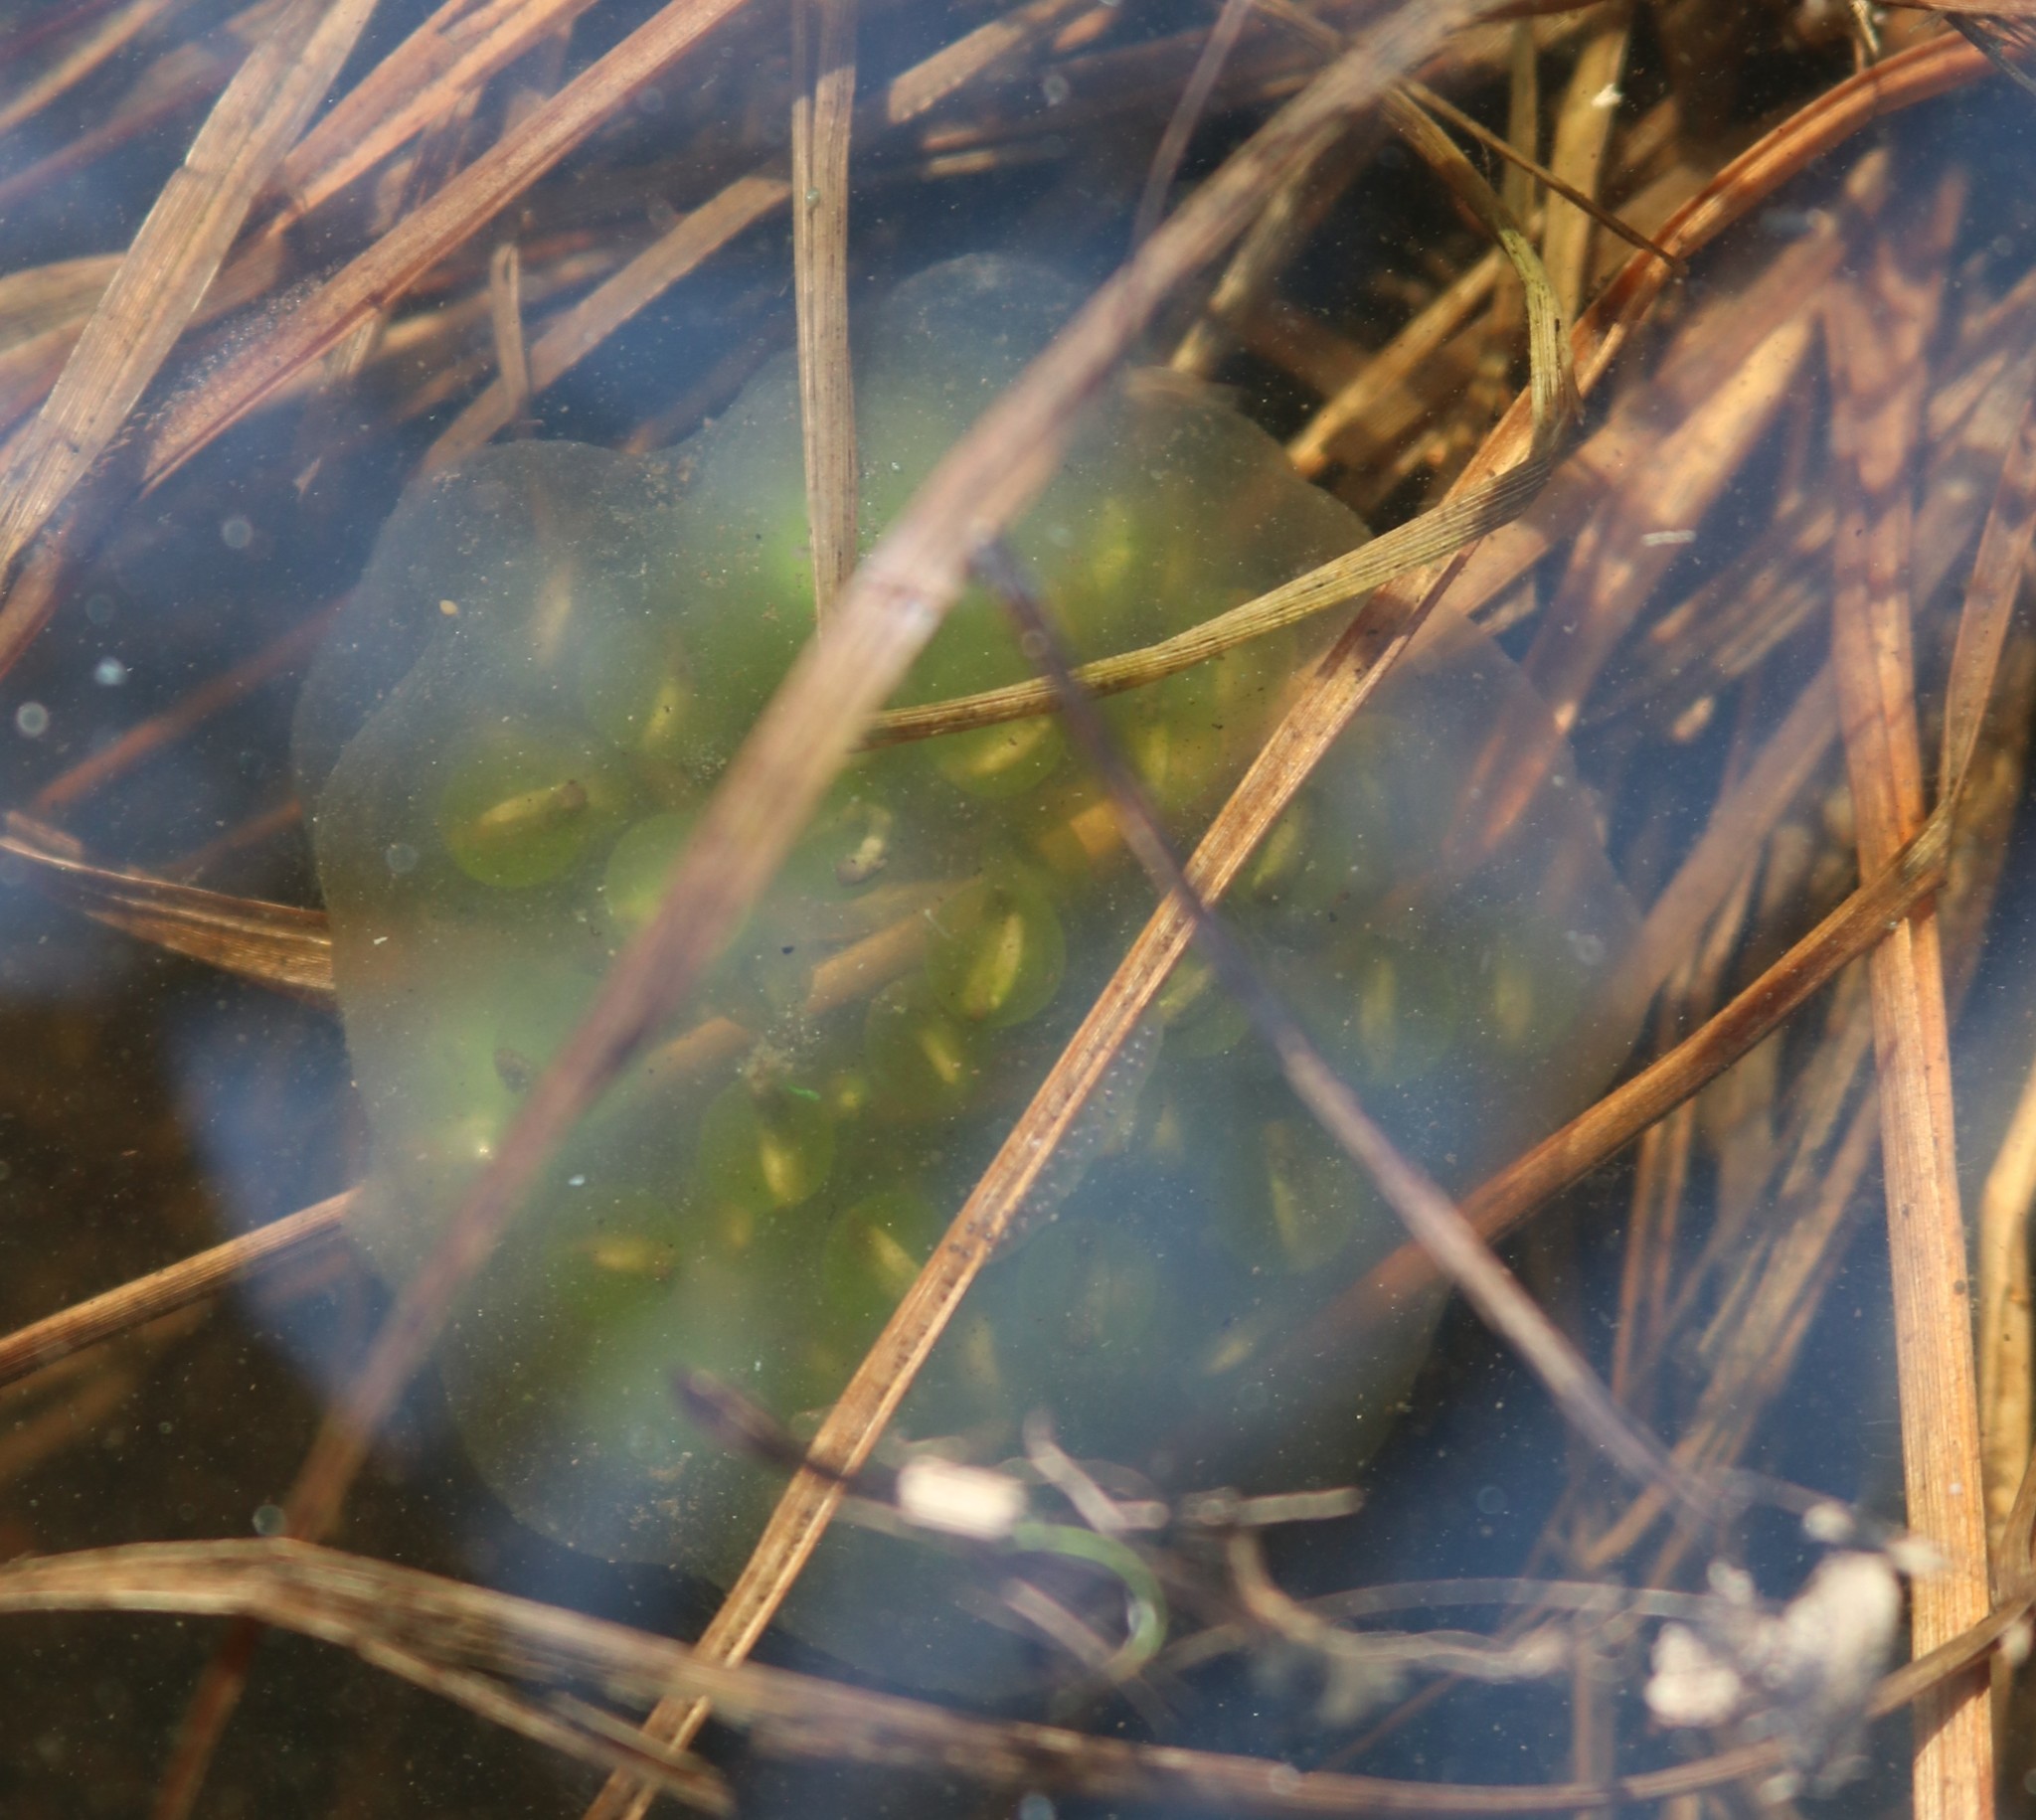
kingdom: Animalia
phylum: Chordata
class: Amphibia
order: Caudata
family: Ambystomatidae
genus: Ambystoma
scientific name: Ambystoma maculatum
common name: Spotted salamander
